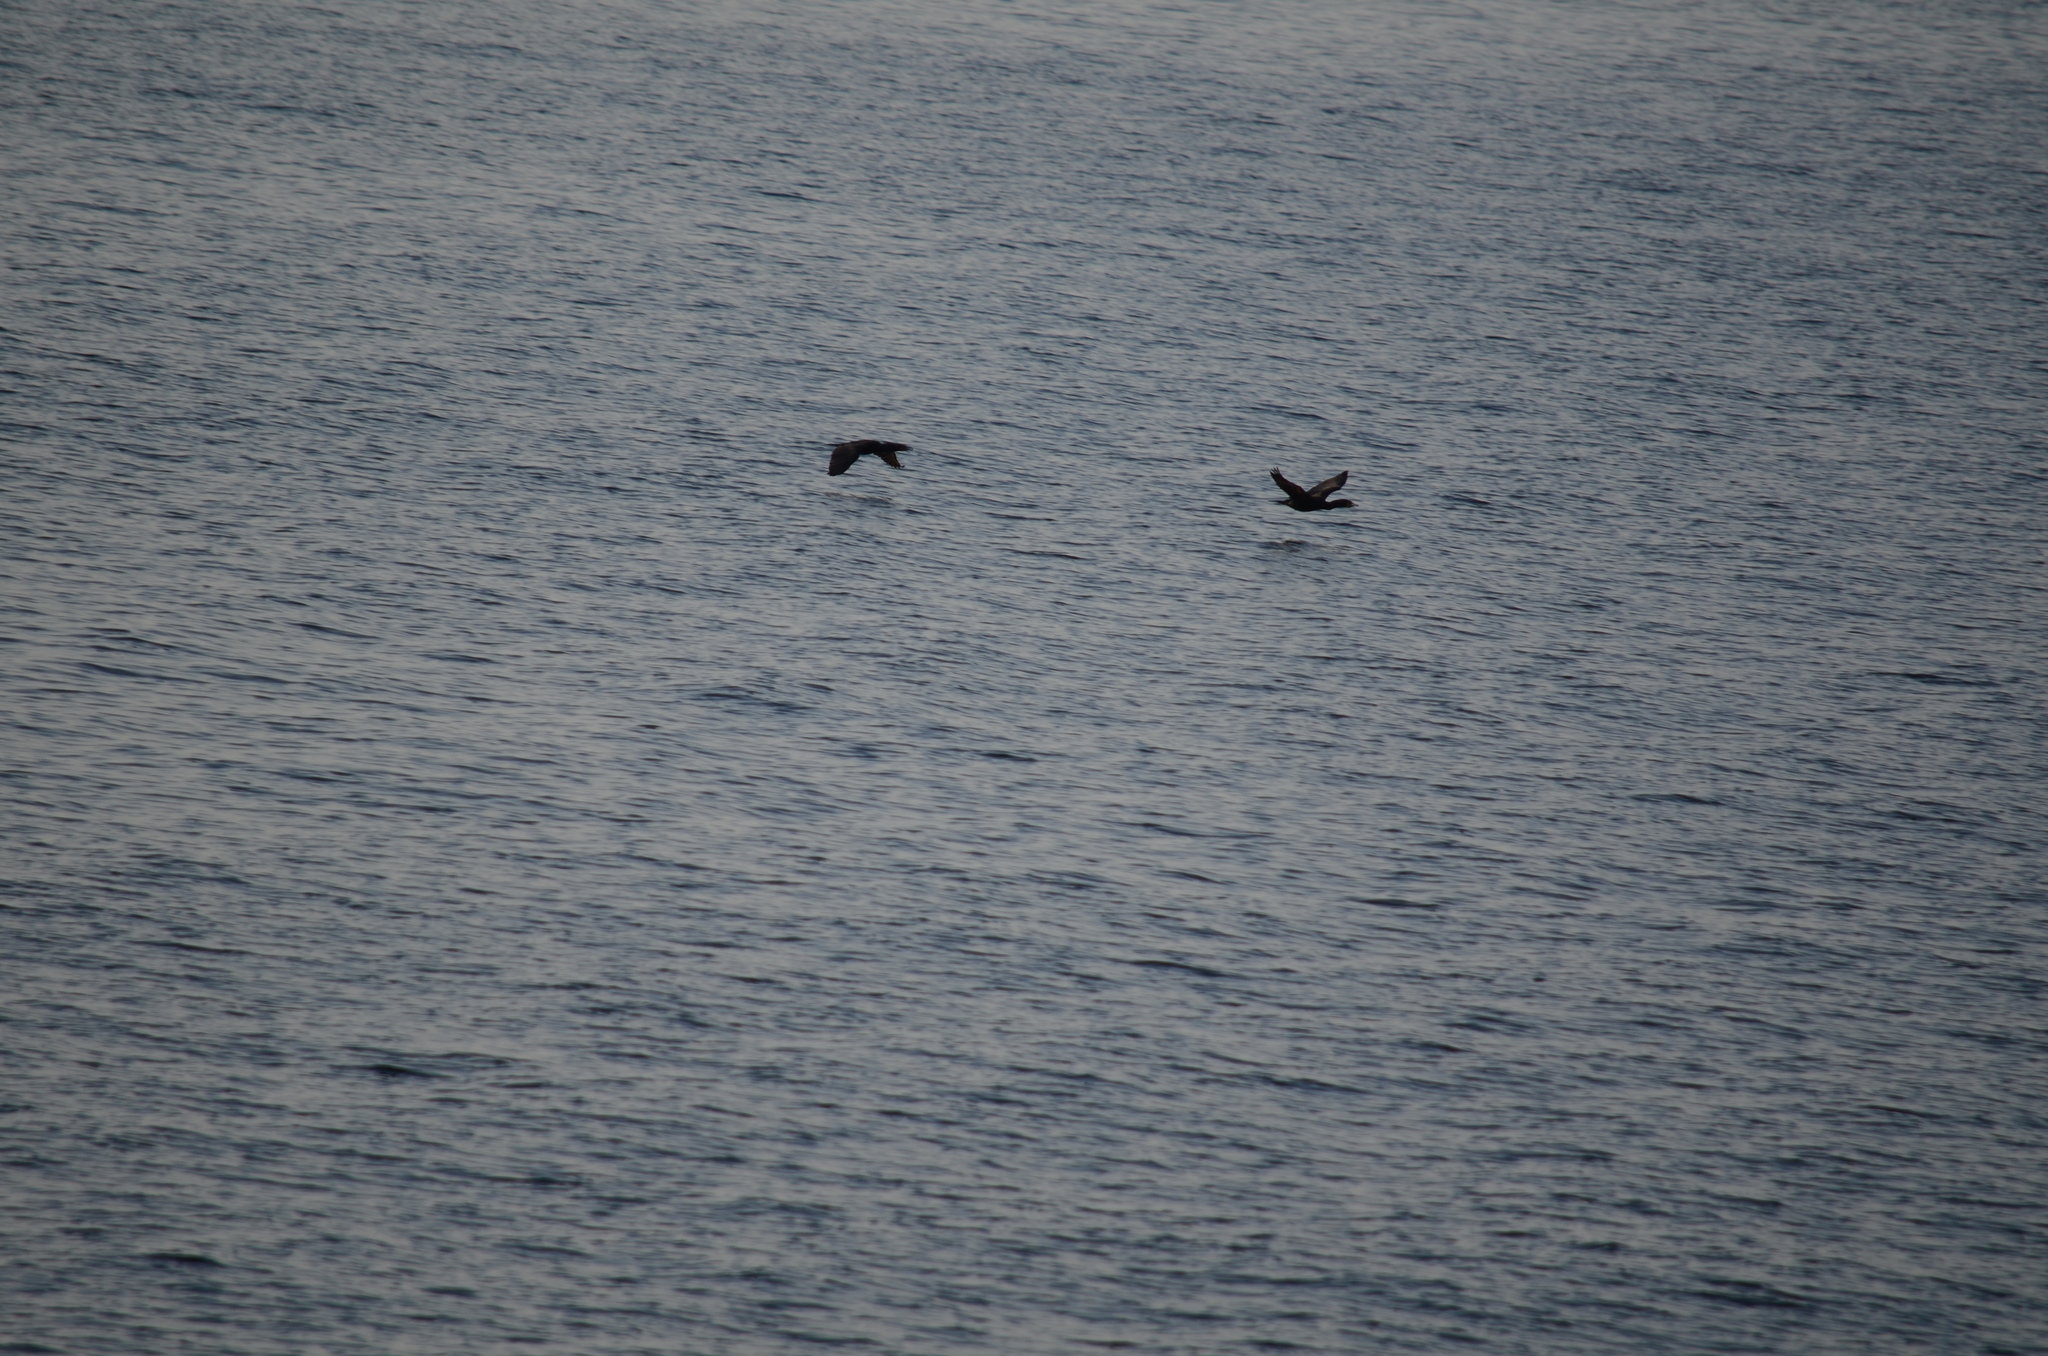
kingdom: Animalia
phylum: Chordata
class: Aves
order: Suliformes
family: Phalacrocoracidae
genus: Phalacrocorax
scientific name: Phalacrocorax auritus
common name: Double-crested cormorant
